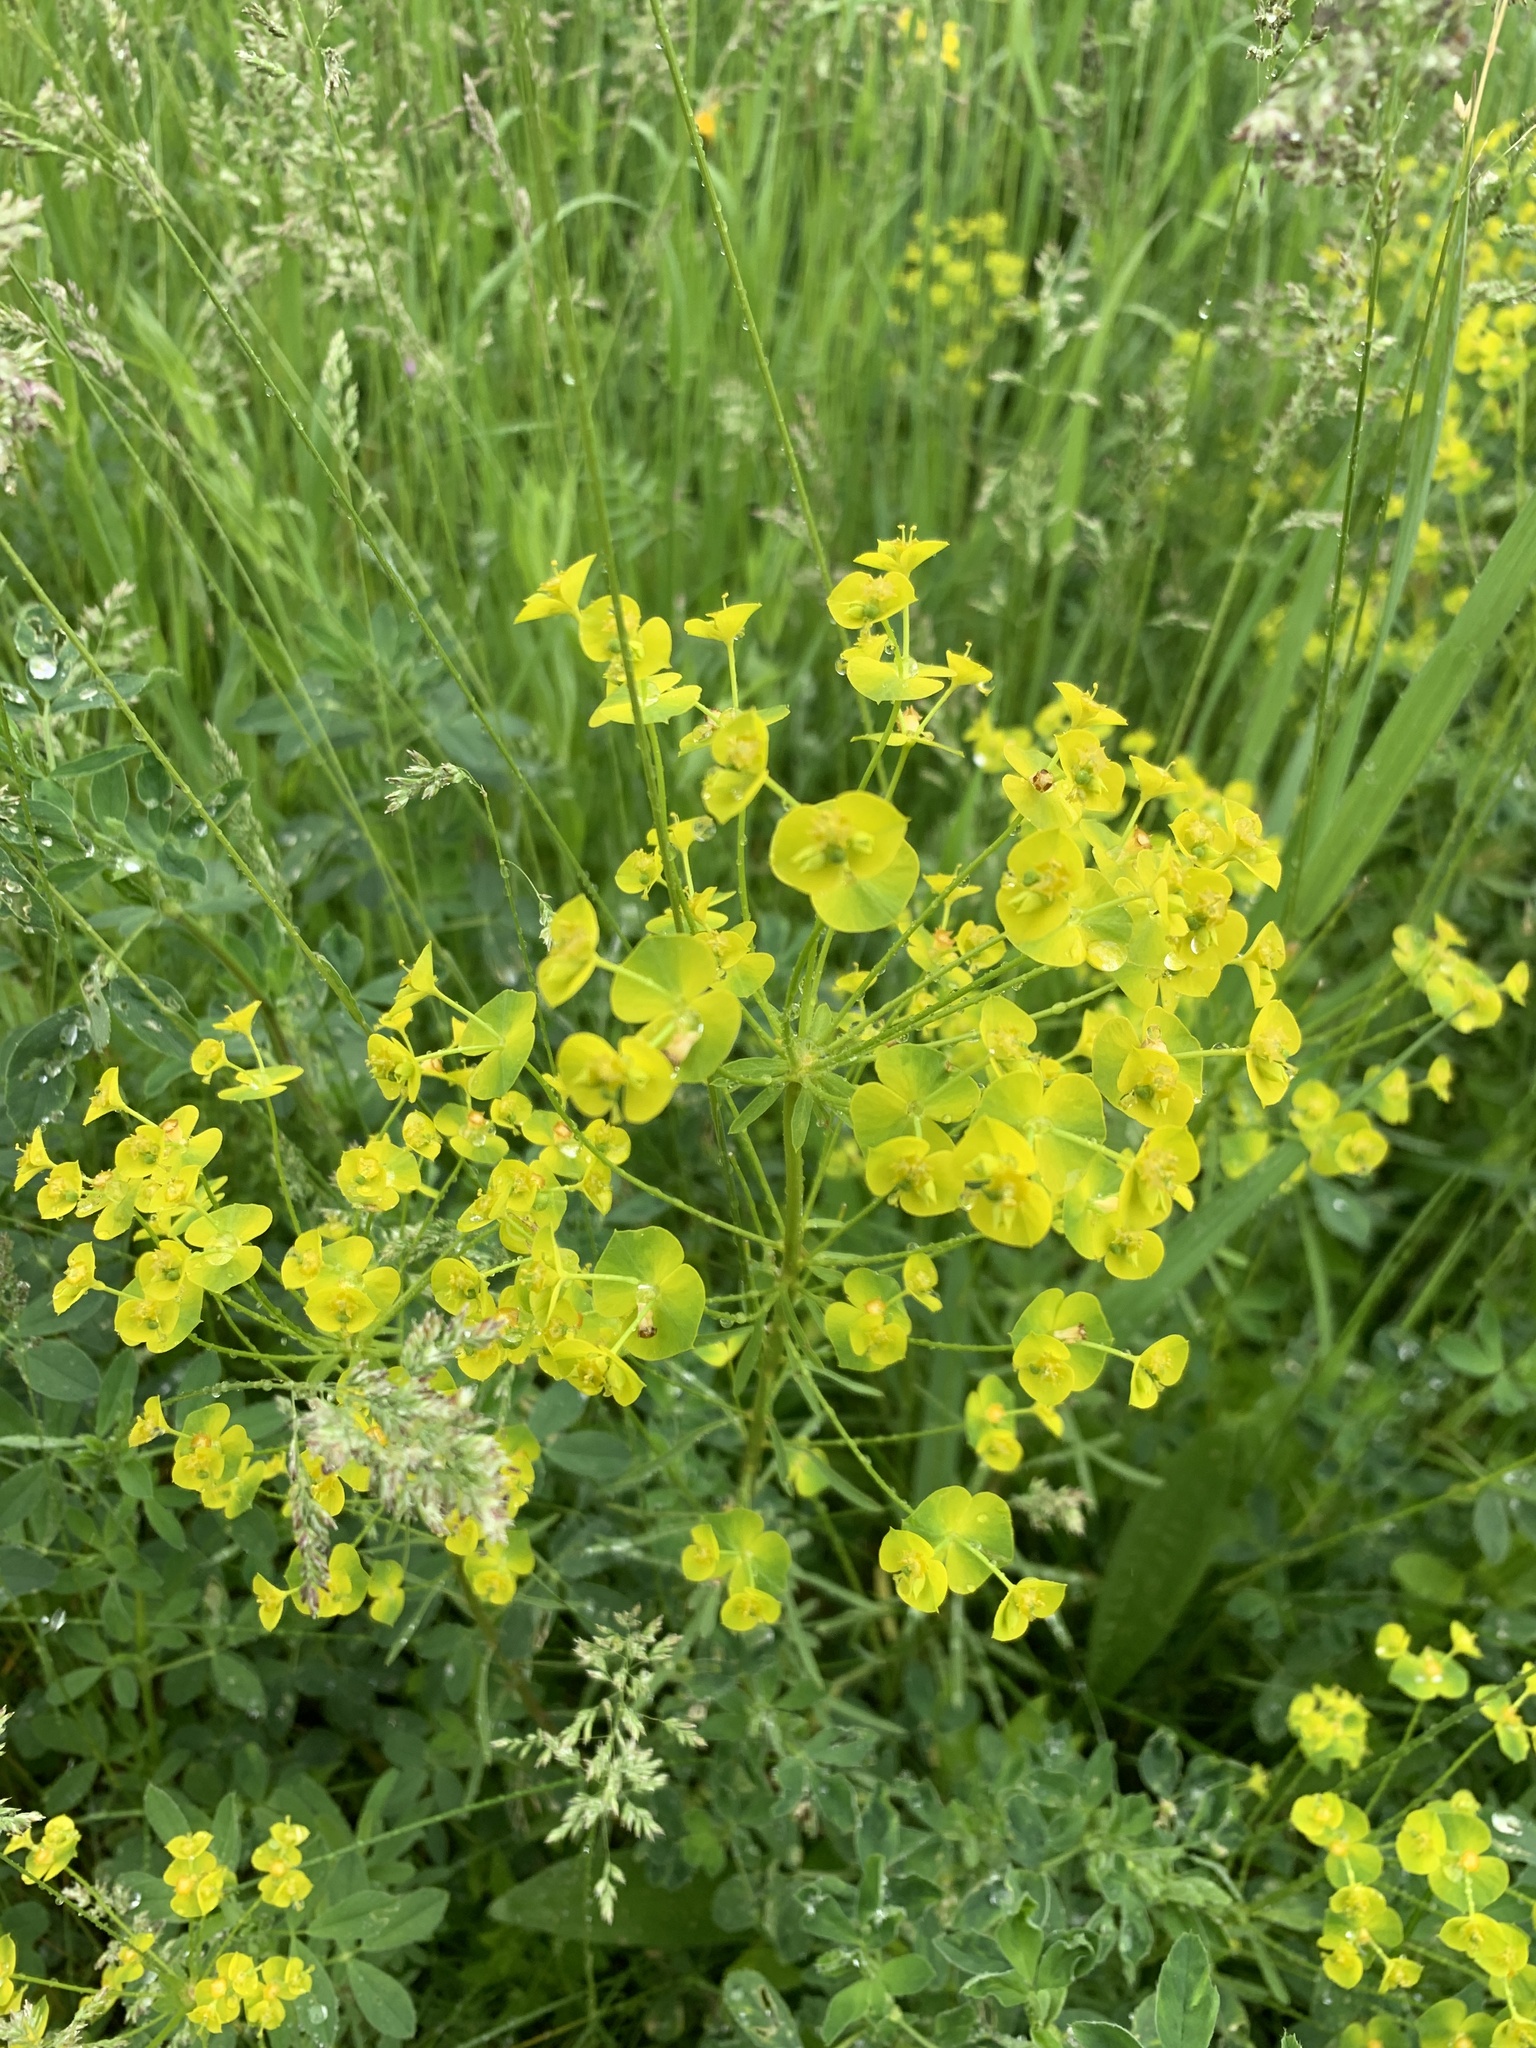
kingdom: Plantae
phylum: Tracheophyta
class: Magnoliopsida
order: Malpighiales
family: Euphorbiaceae
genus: Euphorbia
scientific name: Euphorbia esula
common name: Leafy spurge
